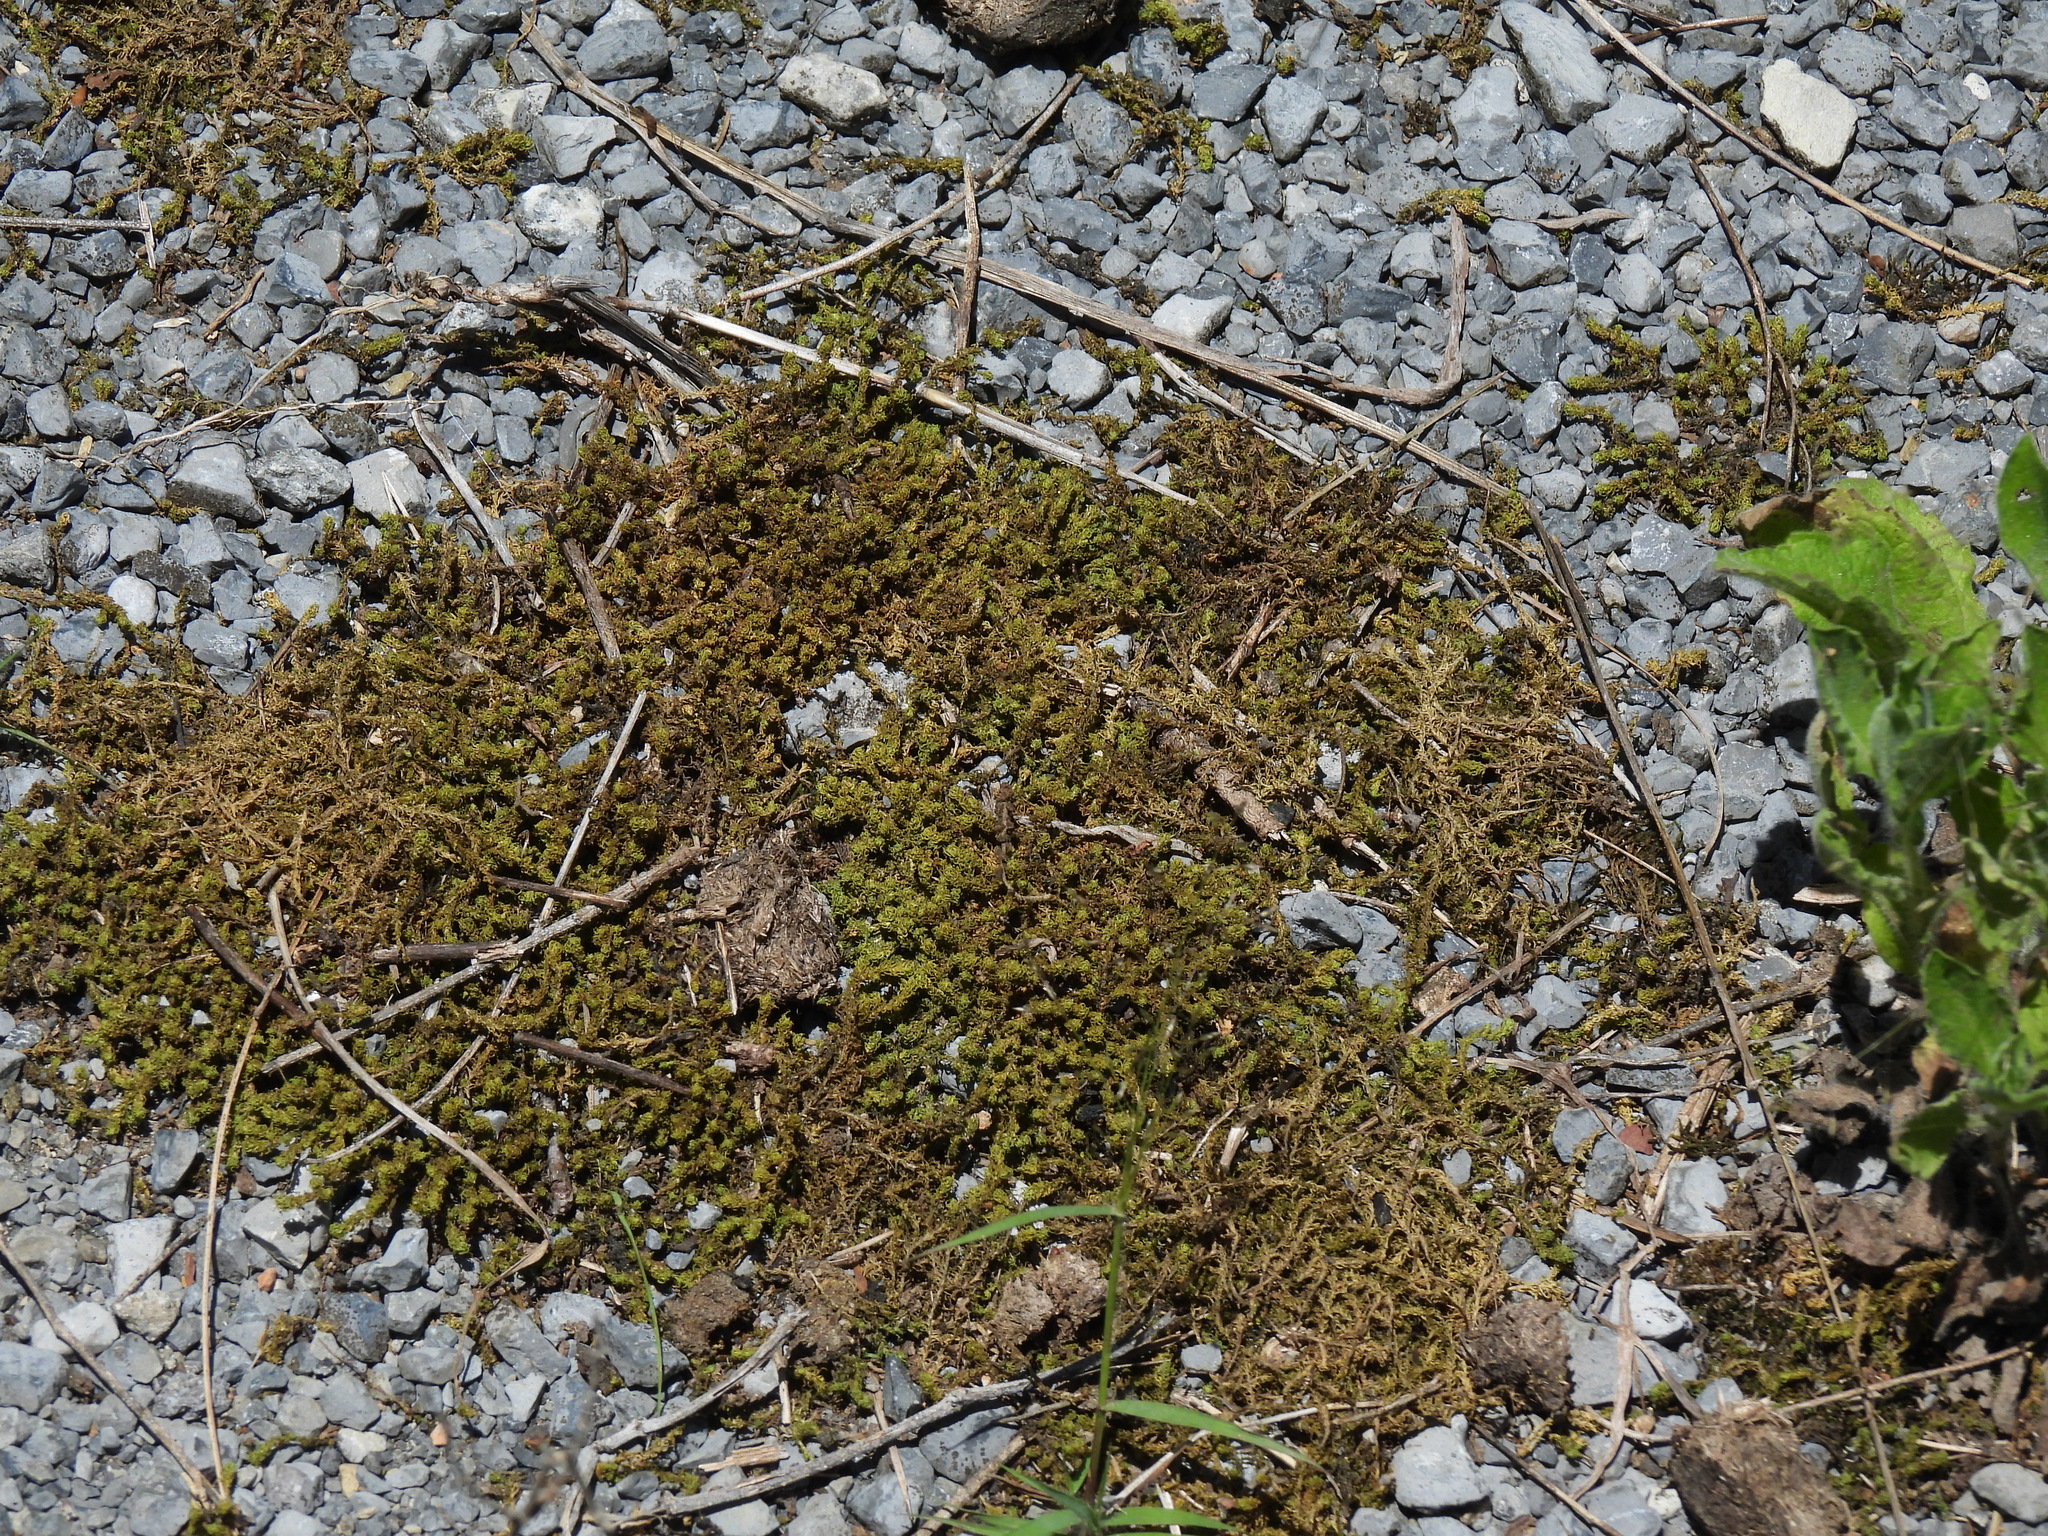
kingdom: Plantae
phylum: Bryophyta
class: Bryopsida
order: Pottiales
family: Pottiaceae
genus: Pleurochaete
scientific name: Pleurochaete squarrosa
